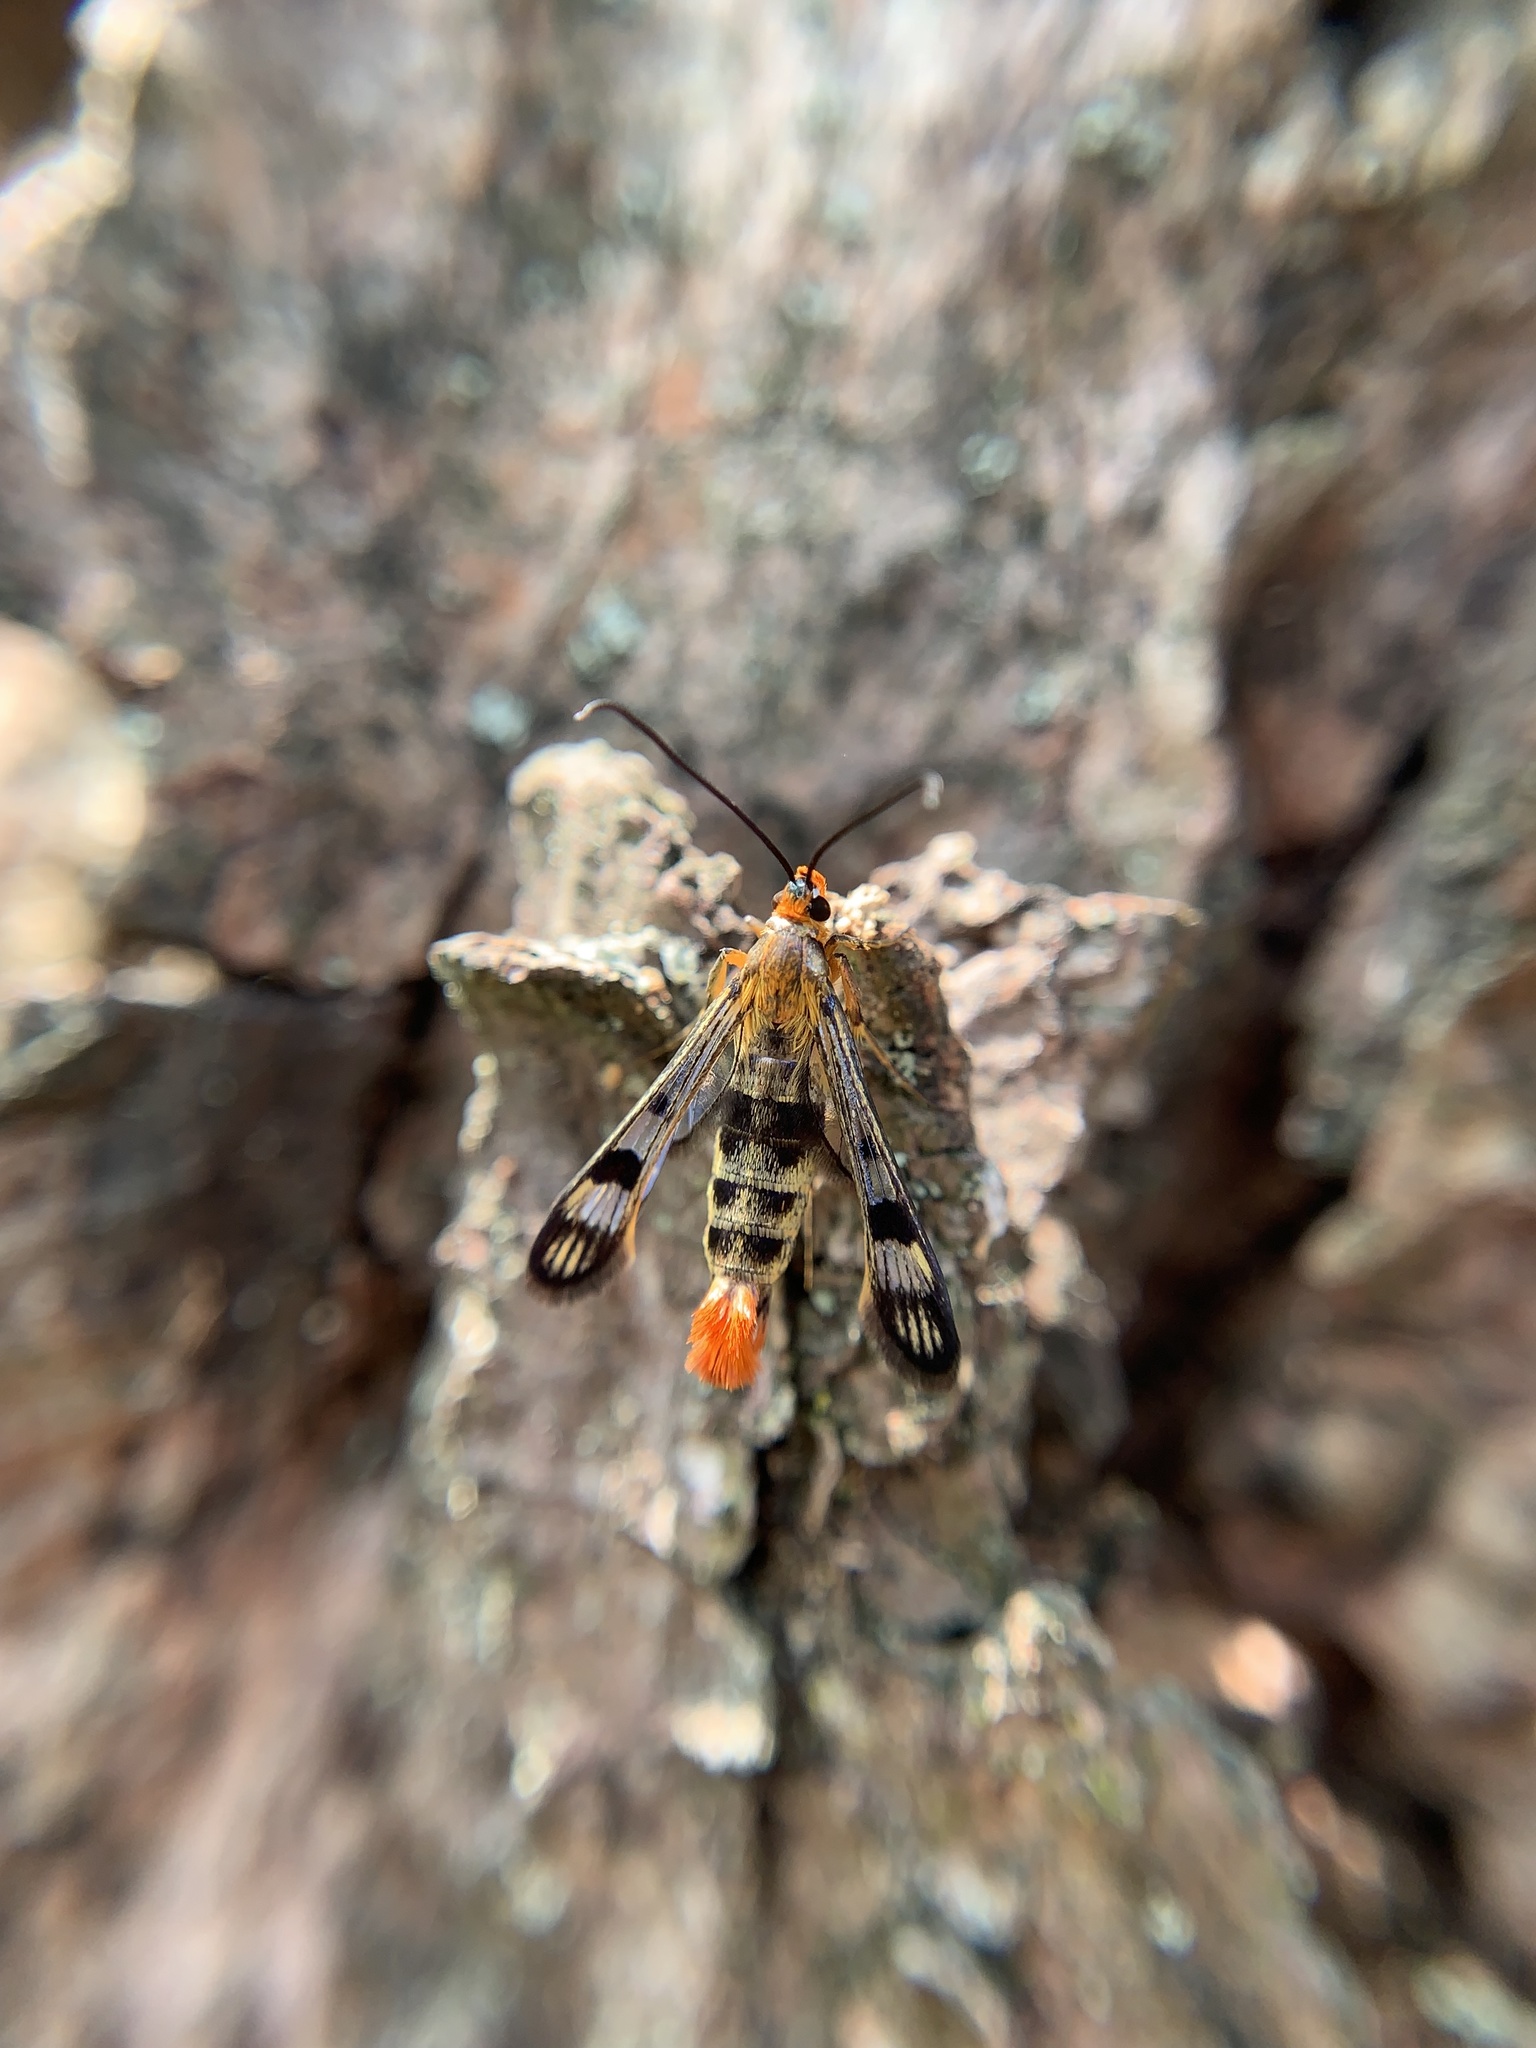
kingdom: Animalia
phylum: Arthropoda
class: Insecta
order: Lepidoptera
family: Sesiidae
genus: Synanthedon
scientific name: Synanthedon acerni
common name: Maple callus borer moth
